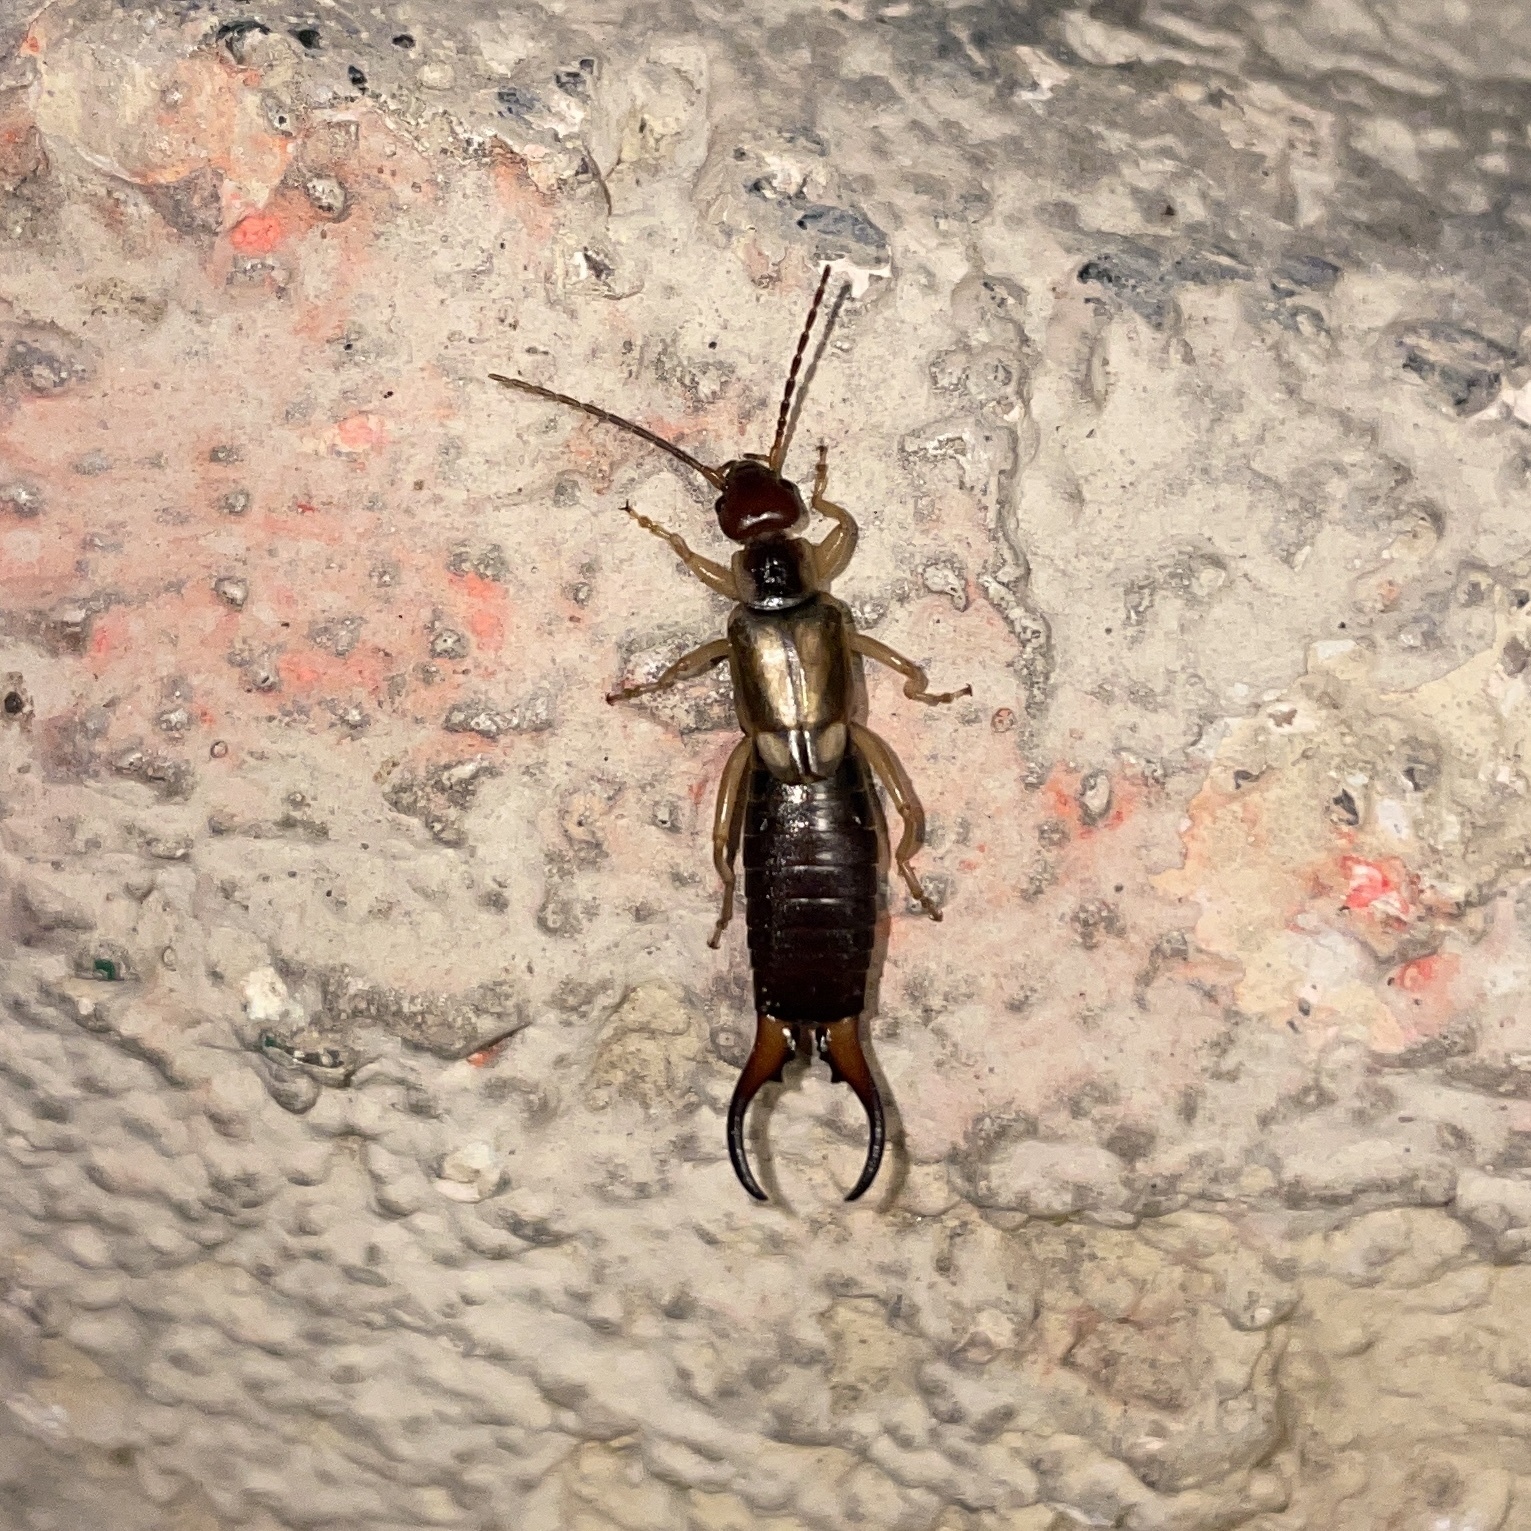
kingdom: Animalia
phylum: Arthropoda
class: Insecta
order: Dermaptera
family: Forficulidae
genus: Forficula
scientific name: Forficula
